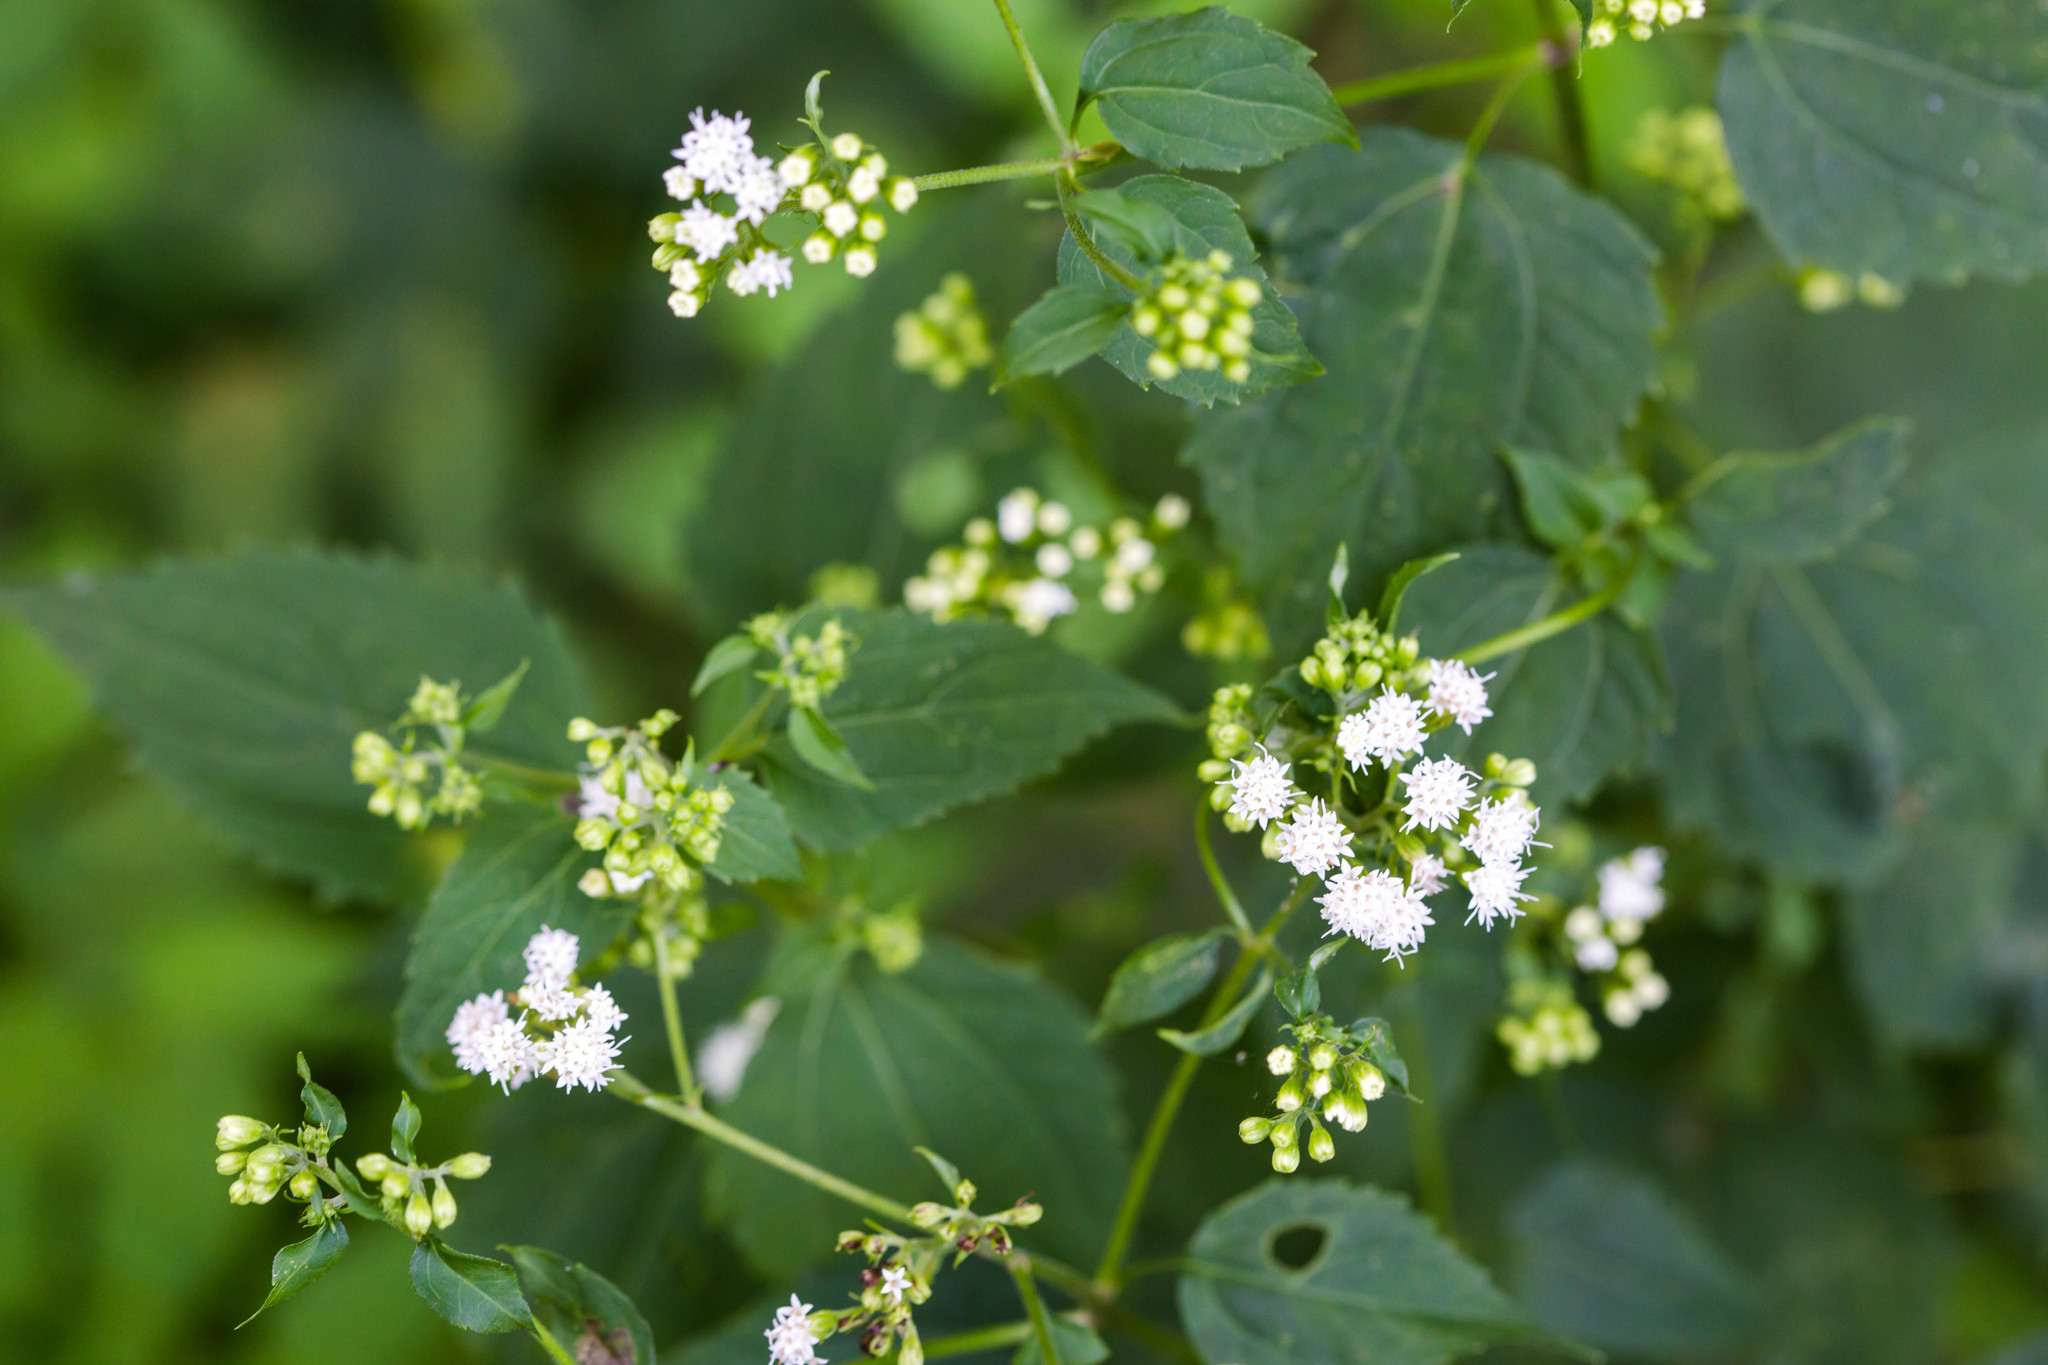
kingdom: Plantae
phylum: Tracheophyta
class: Magnoliopsida
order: Asterales
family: Asteraceae
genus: Ageratina
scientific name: Ageratina altissima
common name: White snakeroot
